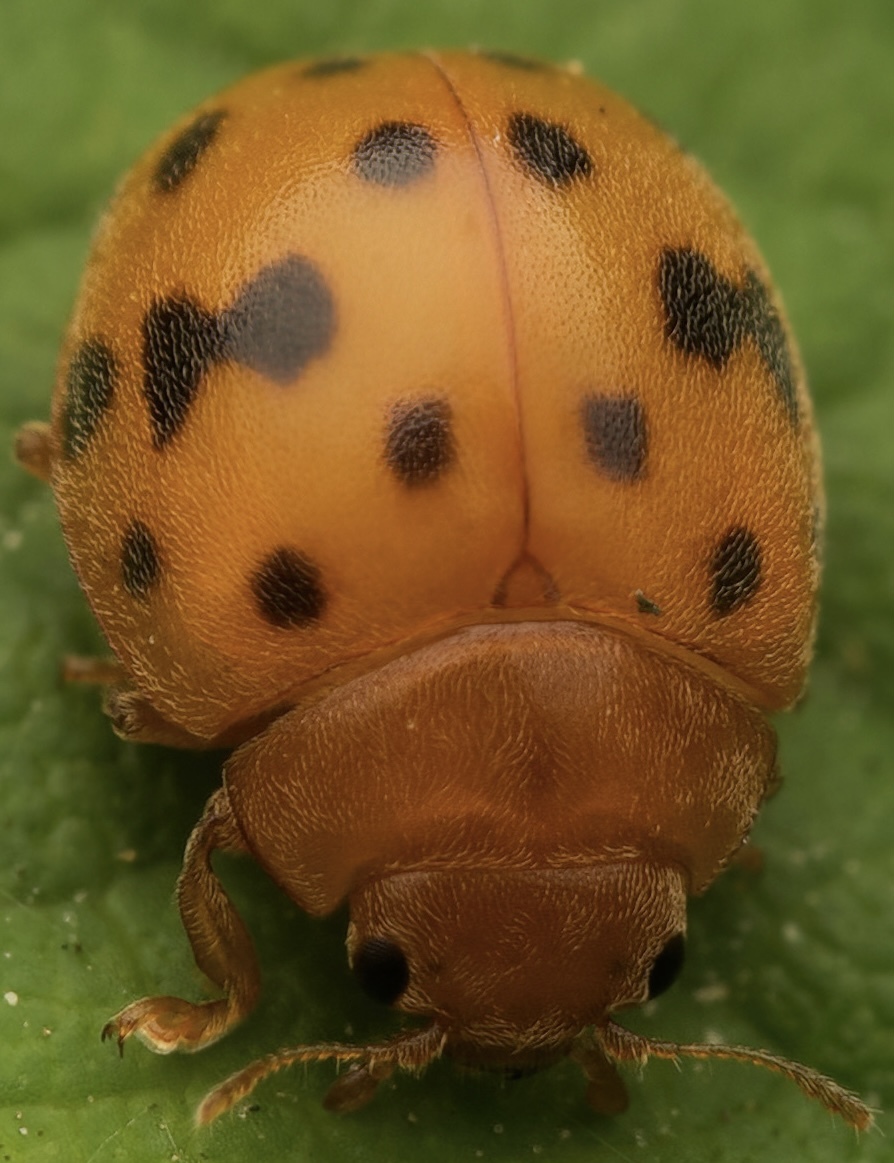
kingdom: Animalia
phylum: Arthropoda
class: Insecta
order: Coleoptera
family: Coccinellidae
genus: Subcoccinella
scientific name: Subcoccinella vigintiquatuorpunctata
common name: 24-spot ladybird
